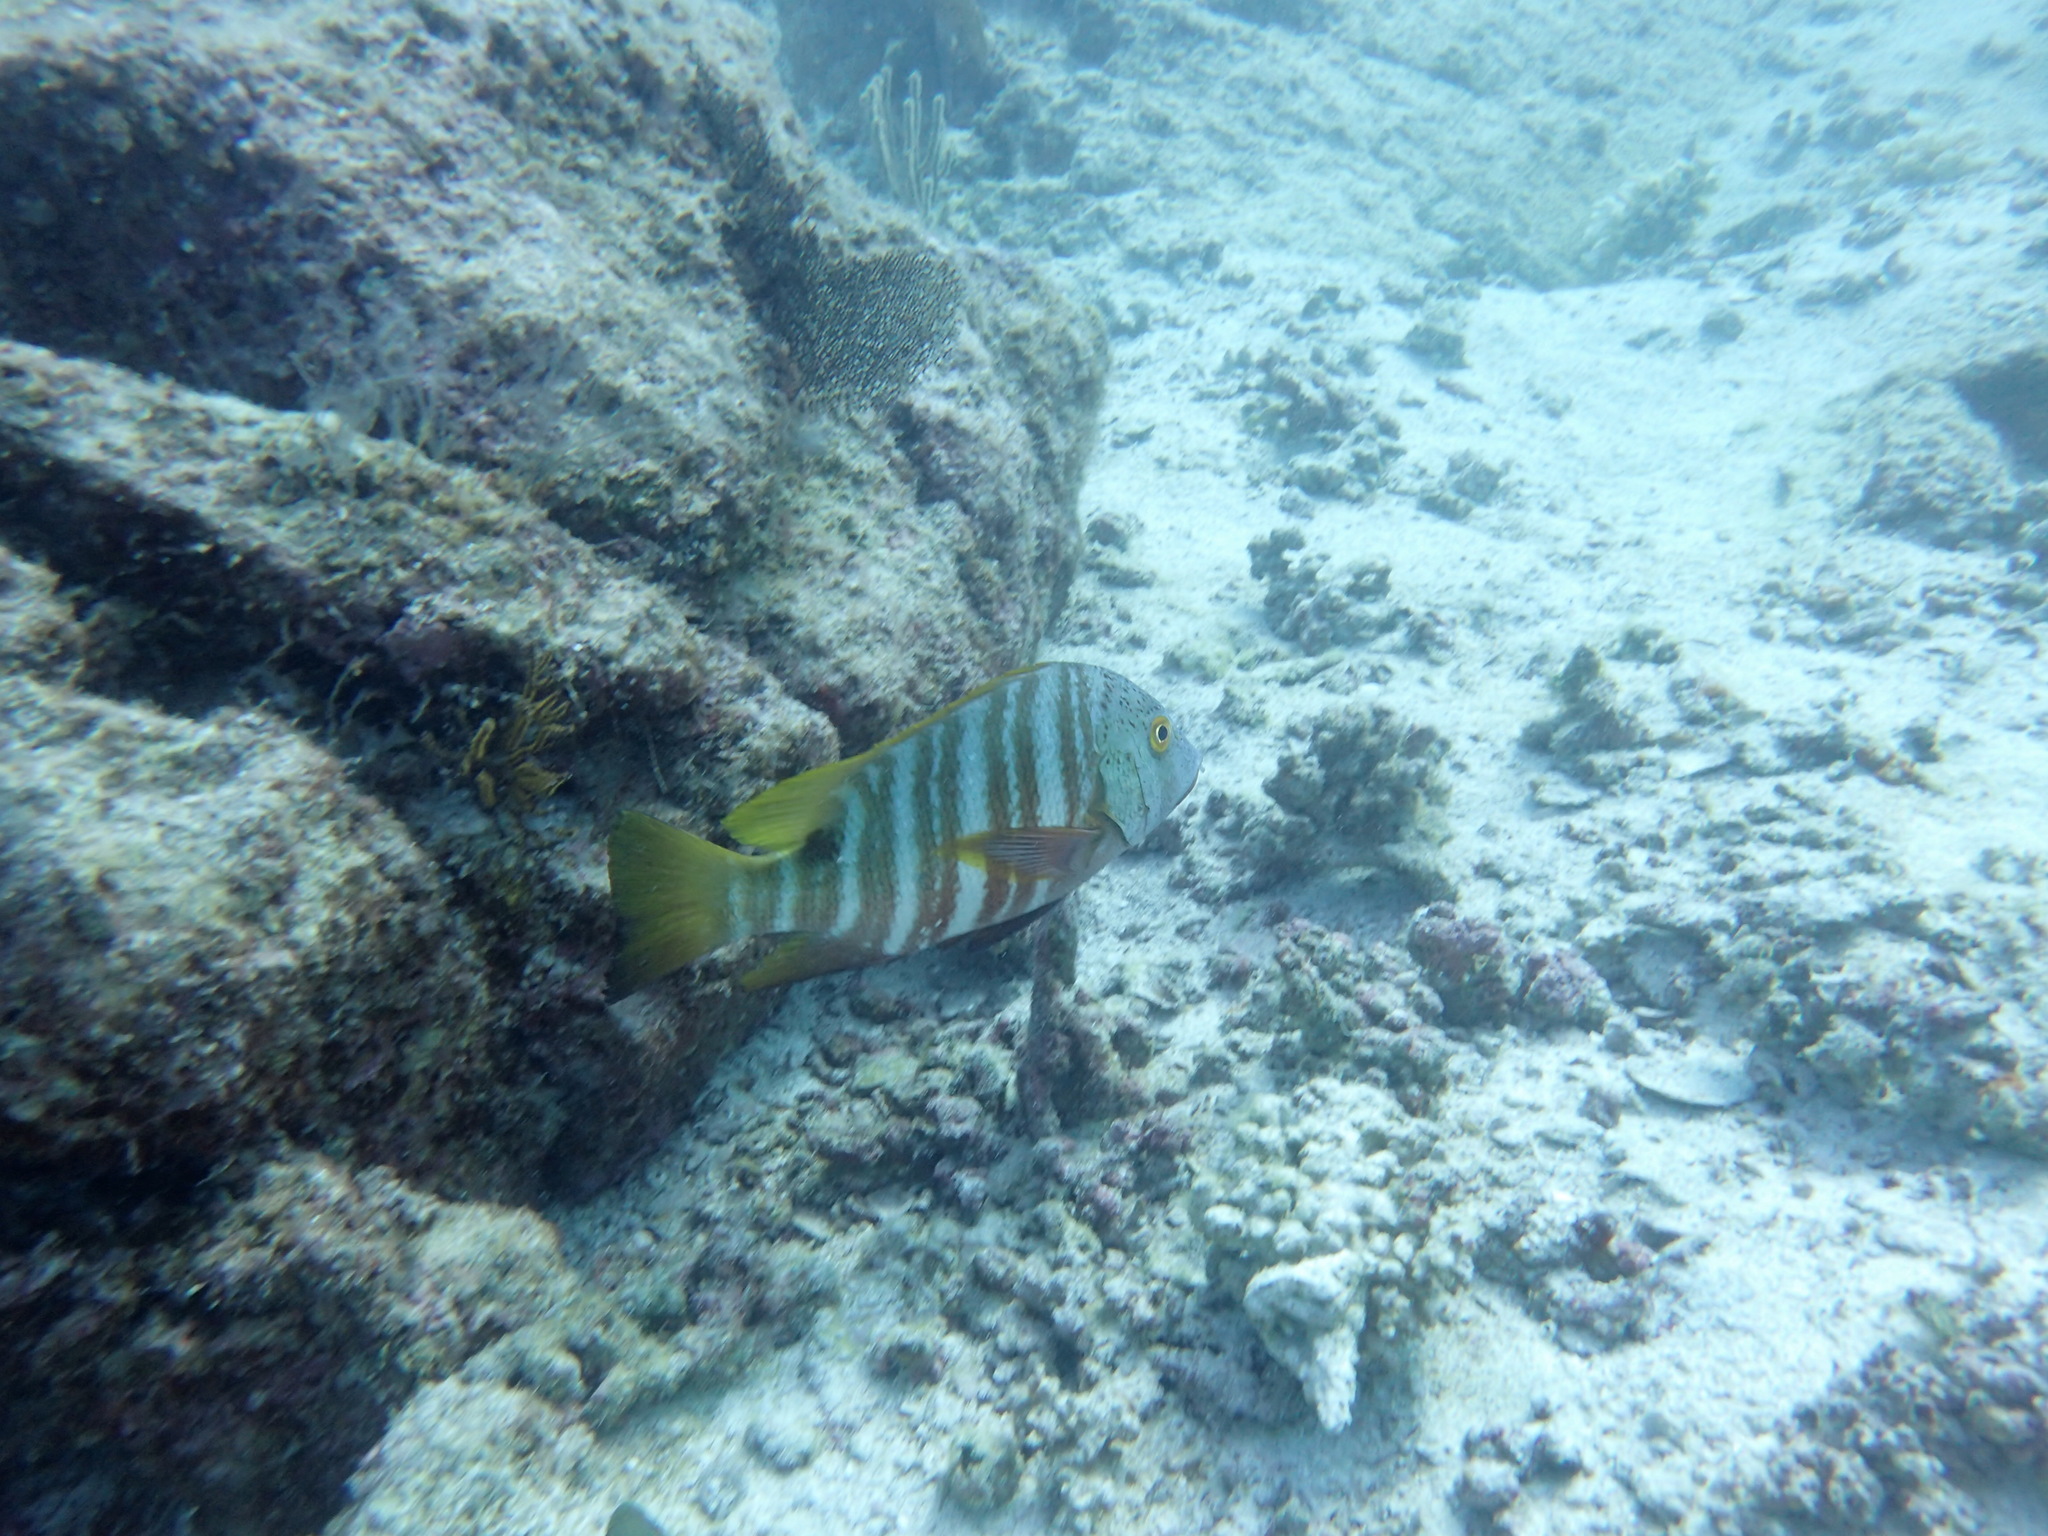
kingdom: Animalia
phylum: Chordata
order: Perciformes
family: Lutjanidae
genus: Hoplopagrus
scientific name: Hoplopagrus guentherii
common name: Barred pargo
